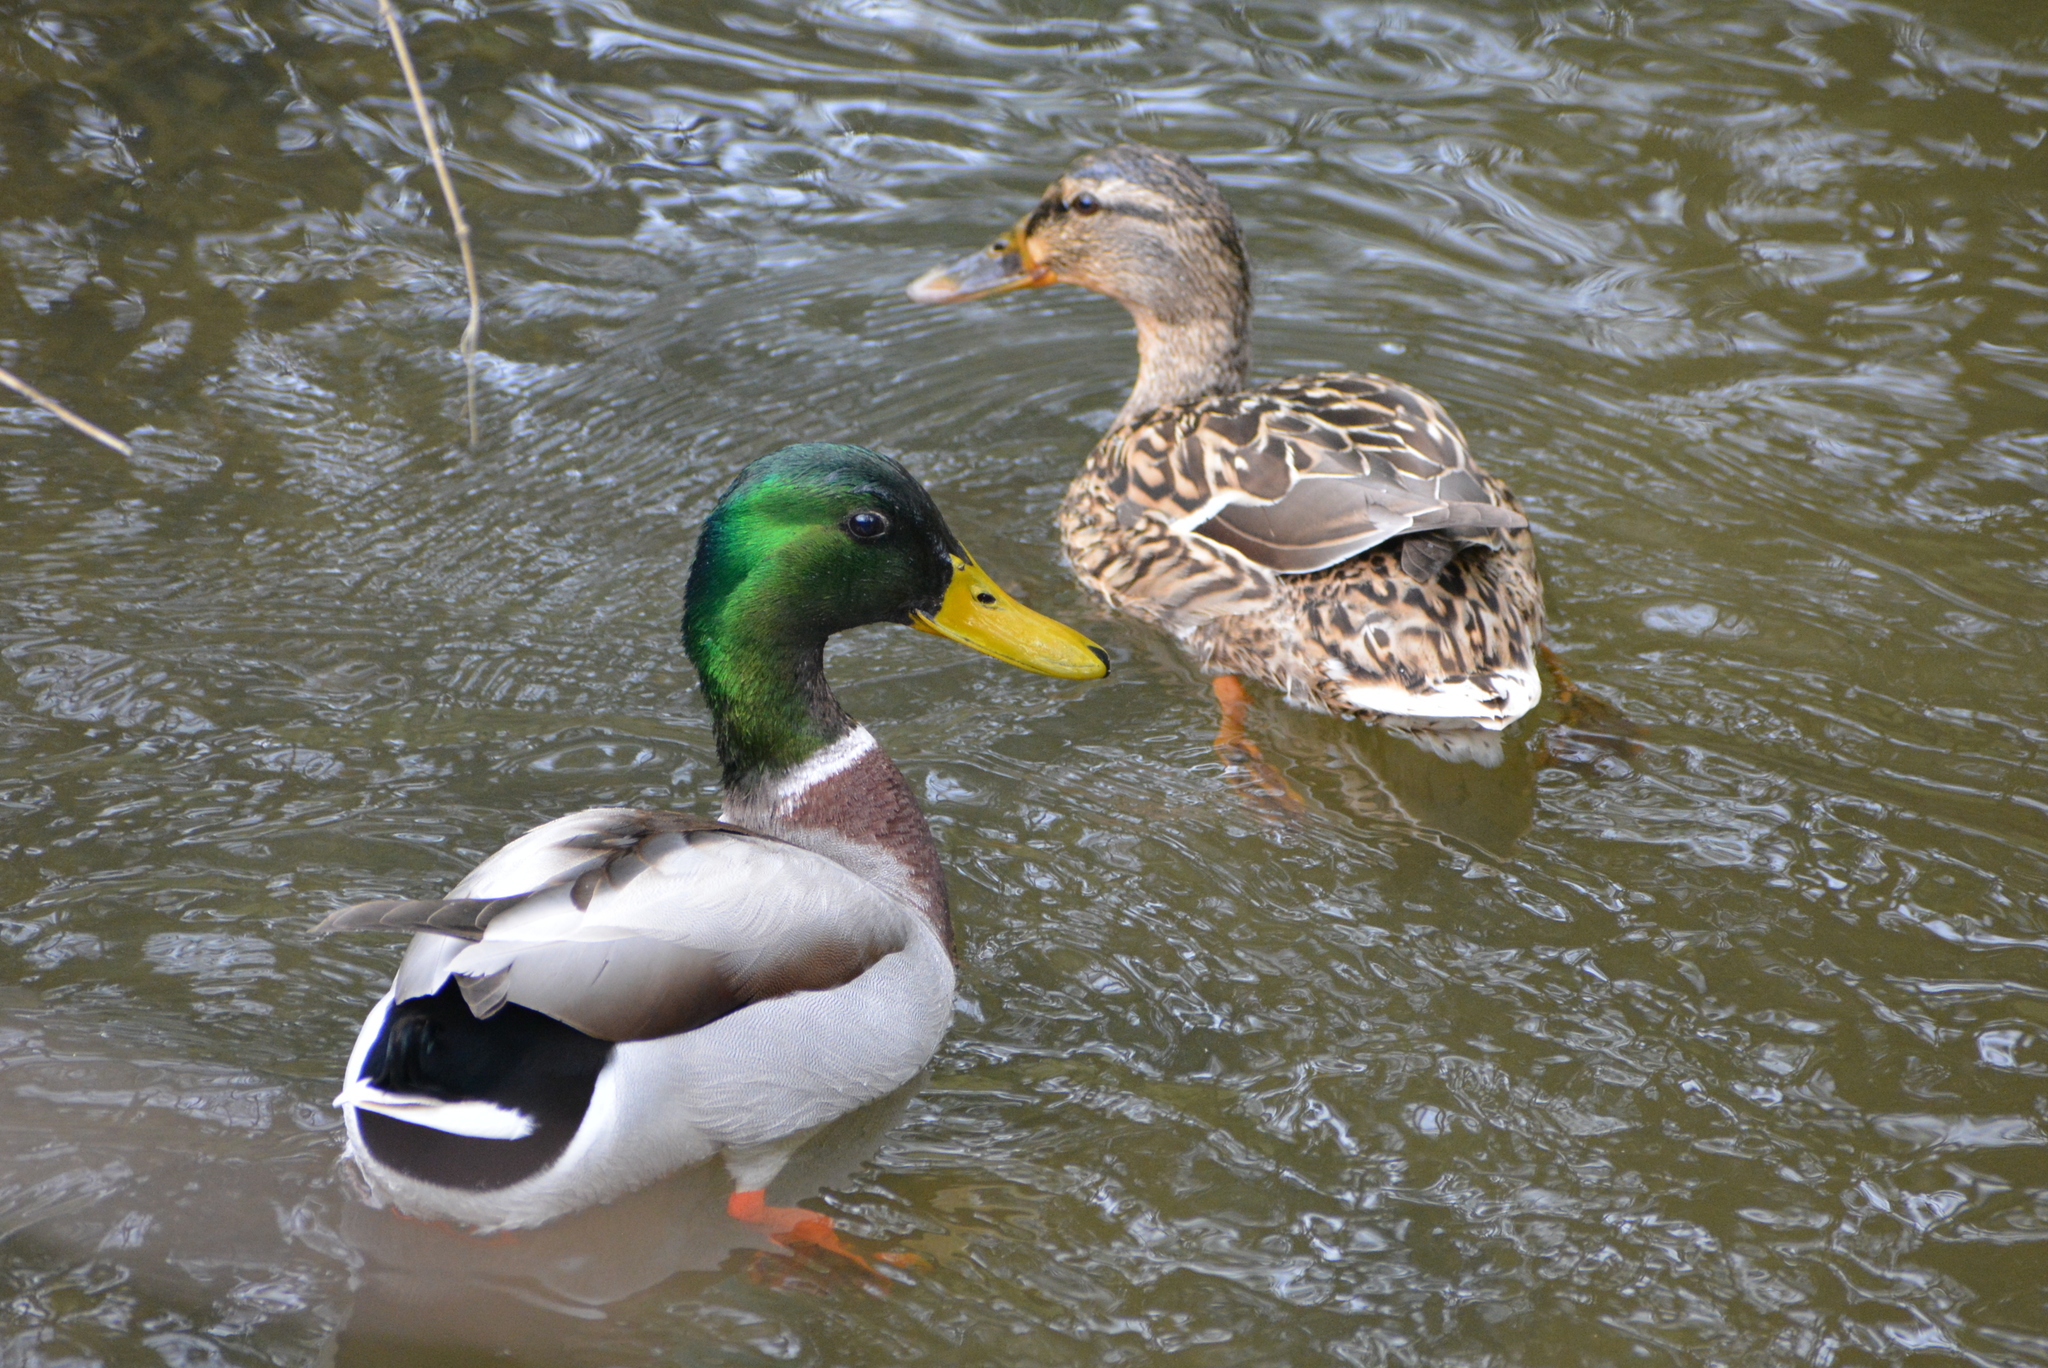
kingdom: Animalia
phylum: Chordata
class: Aves
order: Anseriformes
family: Anatidae
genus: Anas
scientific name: Anas platyrhynchos
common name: Mallard
